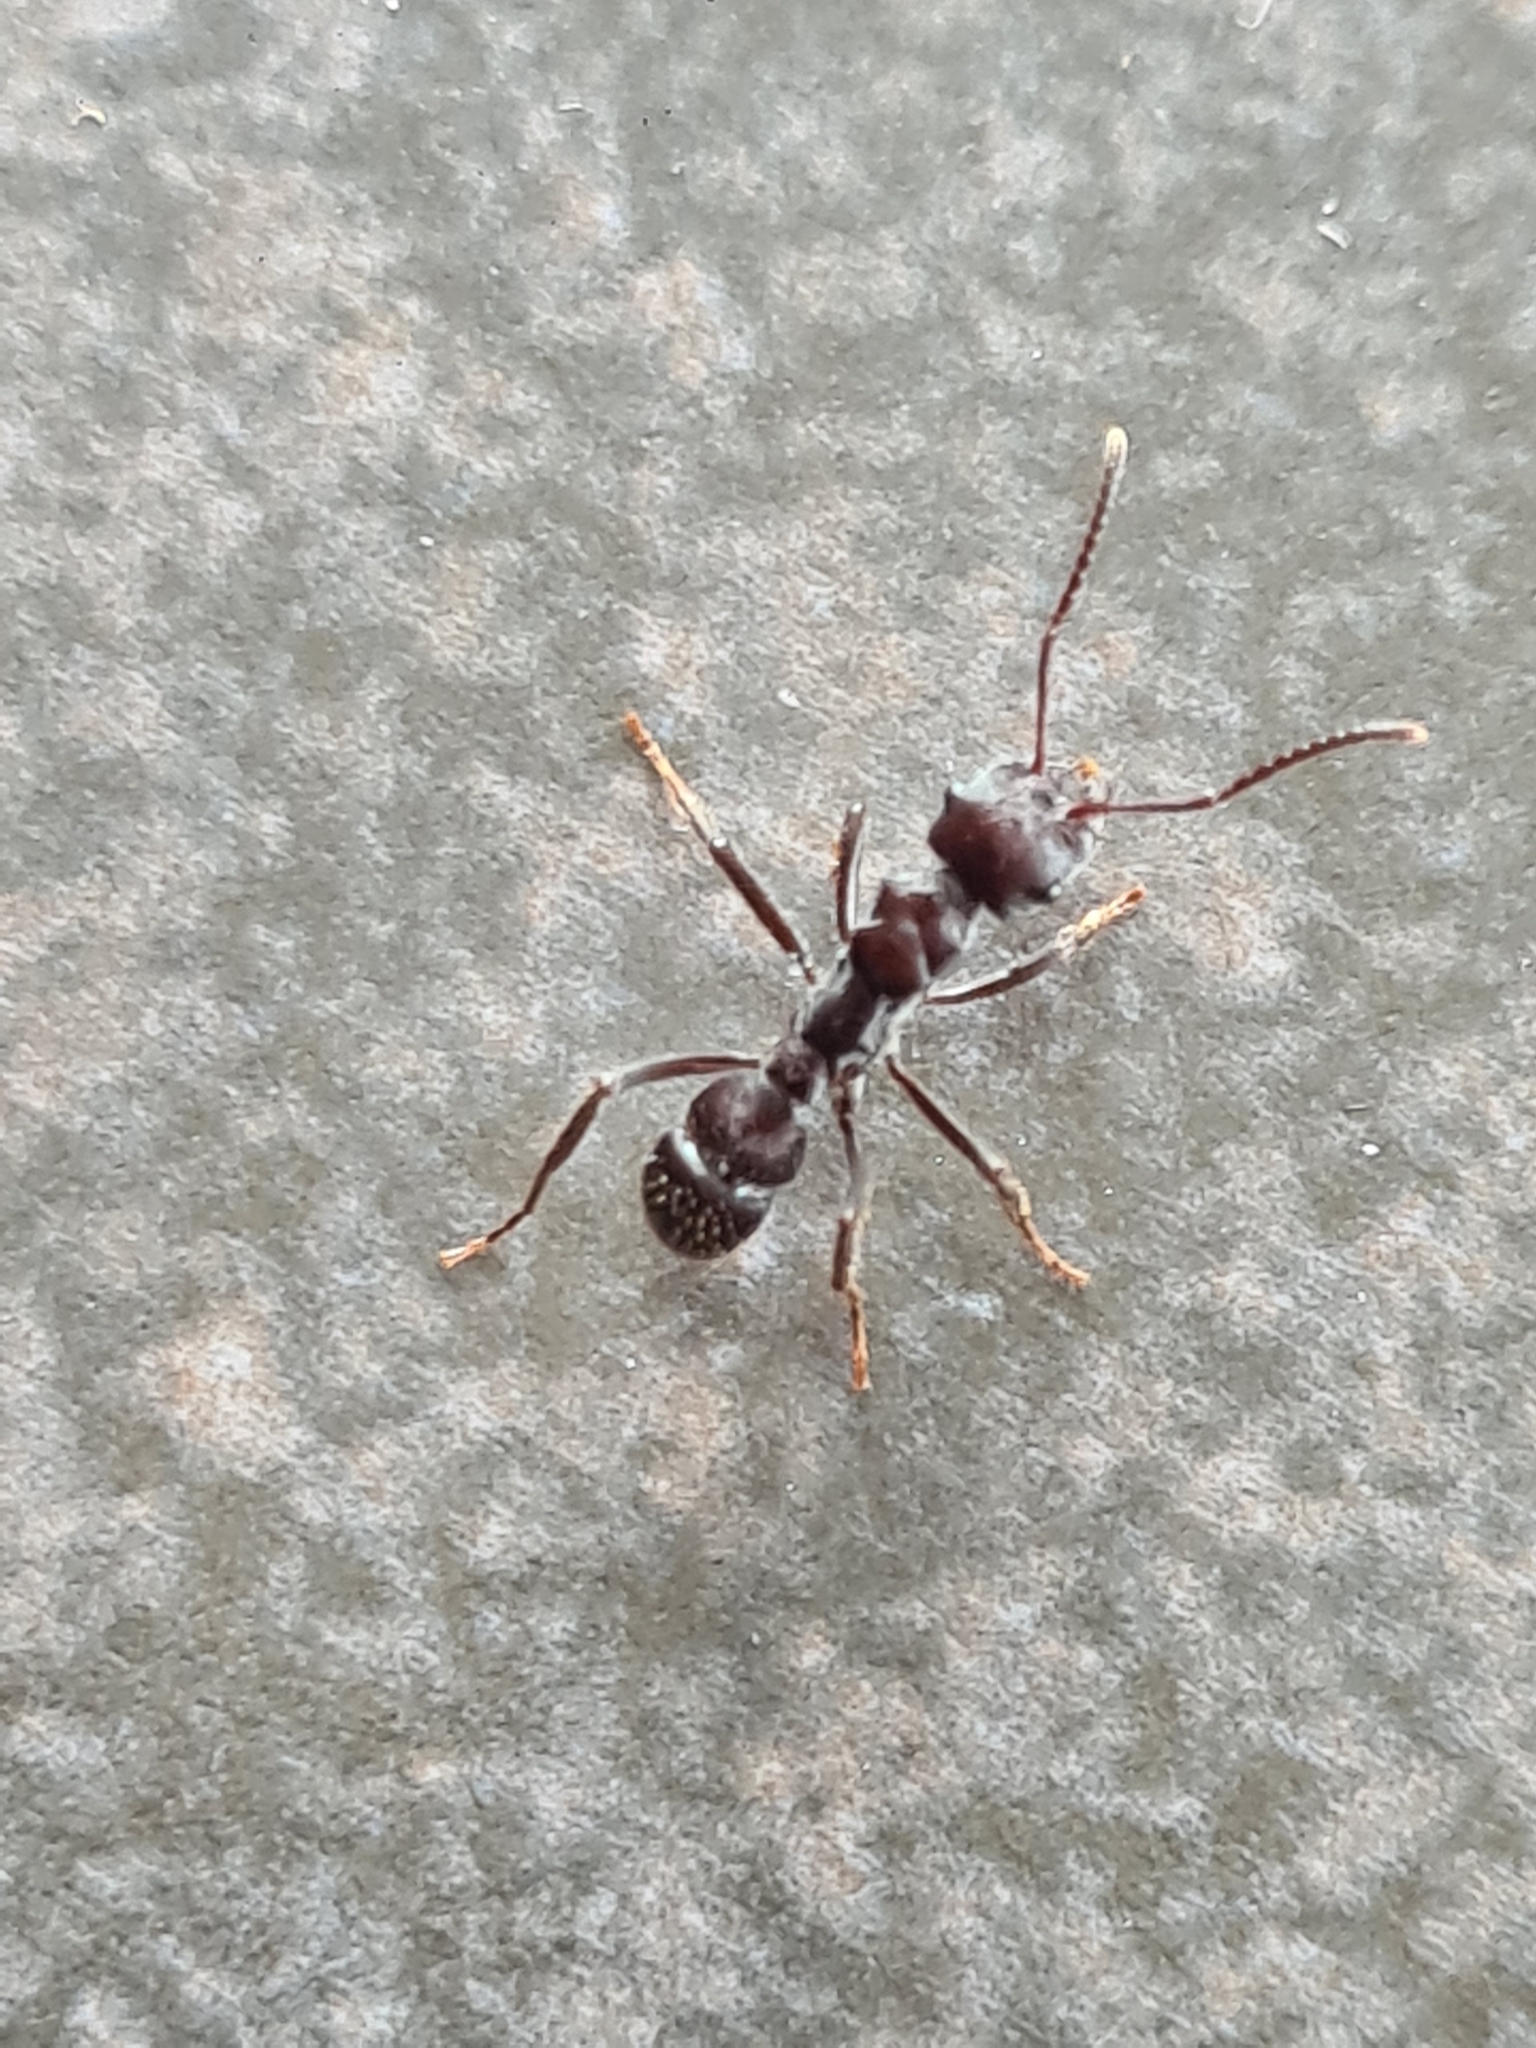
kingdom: Animalia
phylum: Arthropoda
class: Insecta
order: Hymenoptera
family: Formicidae
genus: Ectatomma
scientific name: Ectatomma brunneum
